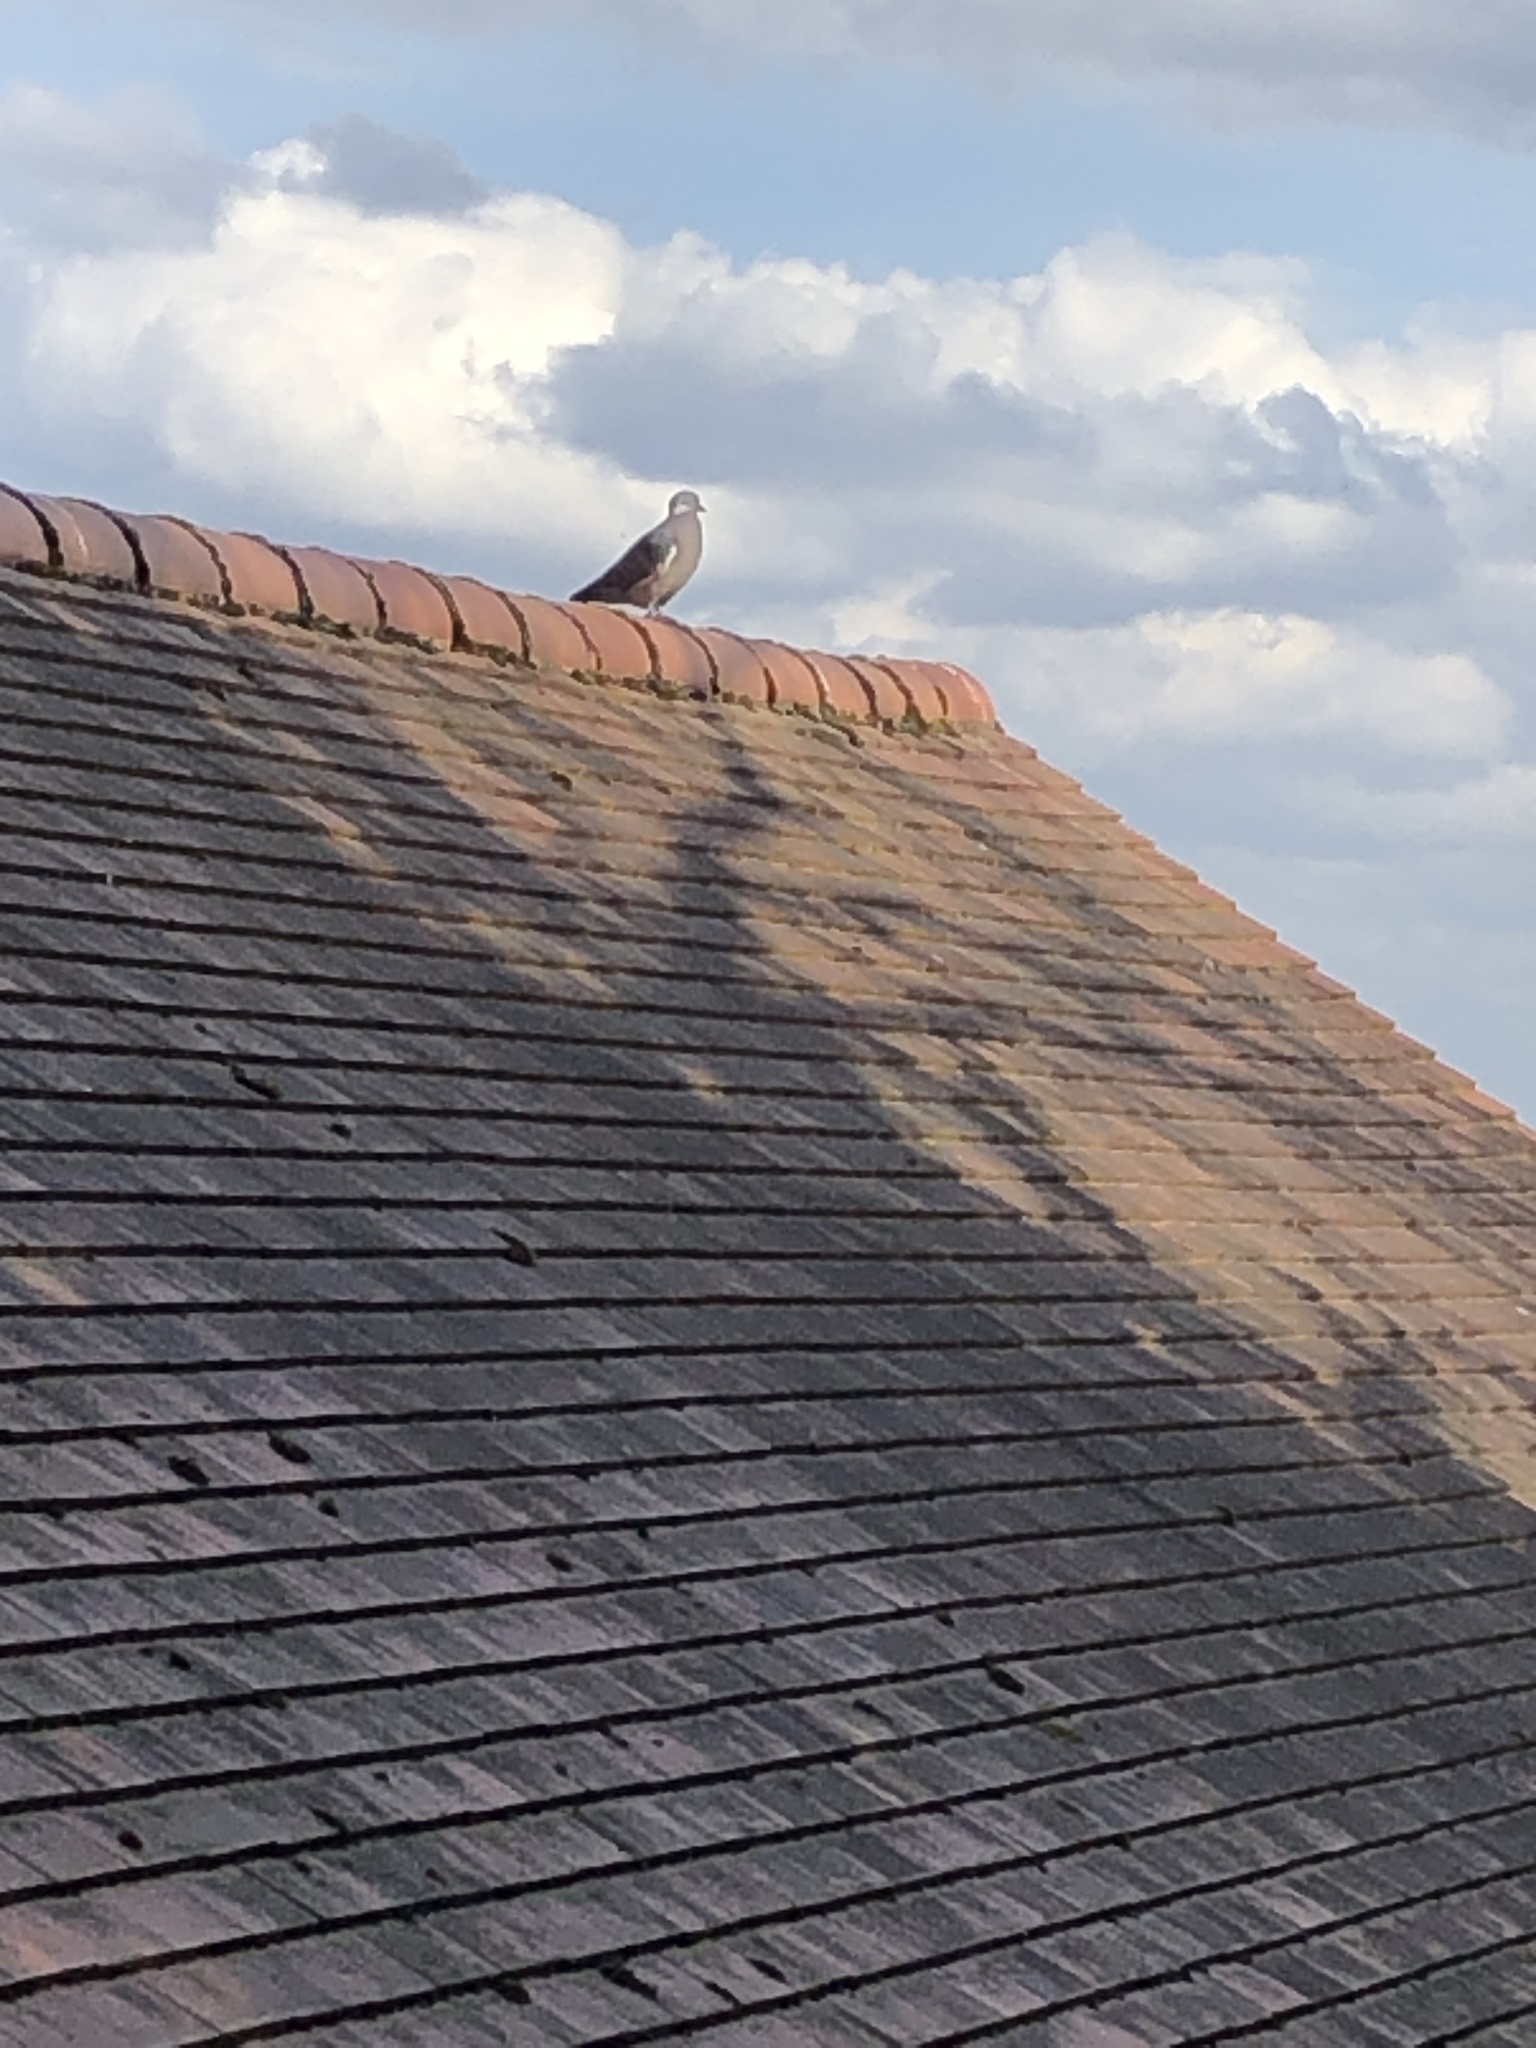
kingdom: Animalia
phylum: Chordata
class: Aves
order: Columbiformes
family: Columbidae
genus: Columba
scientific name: Columba palumbus
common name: Common wood pigeon
